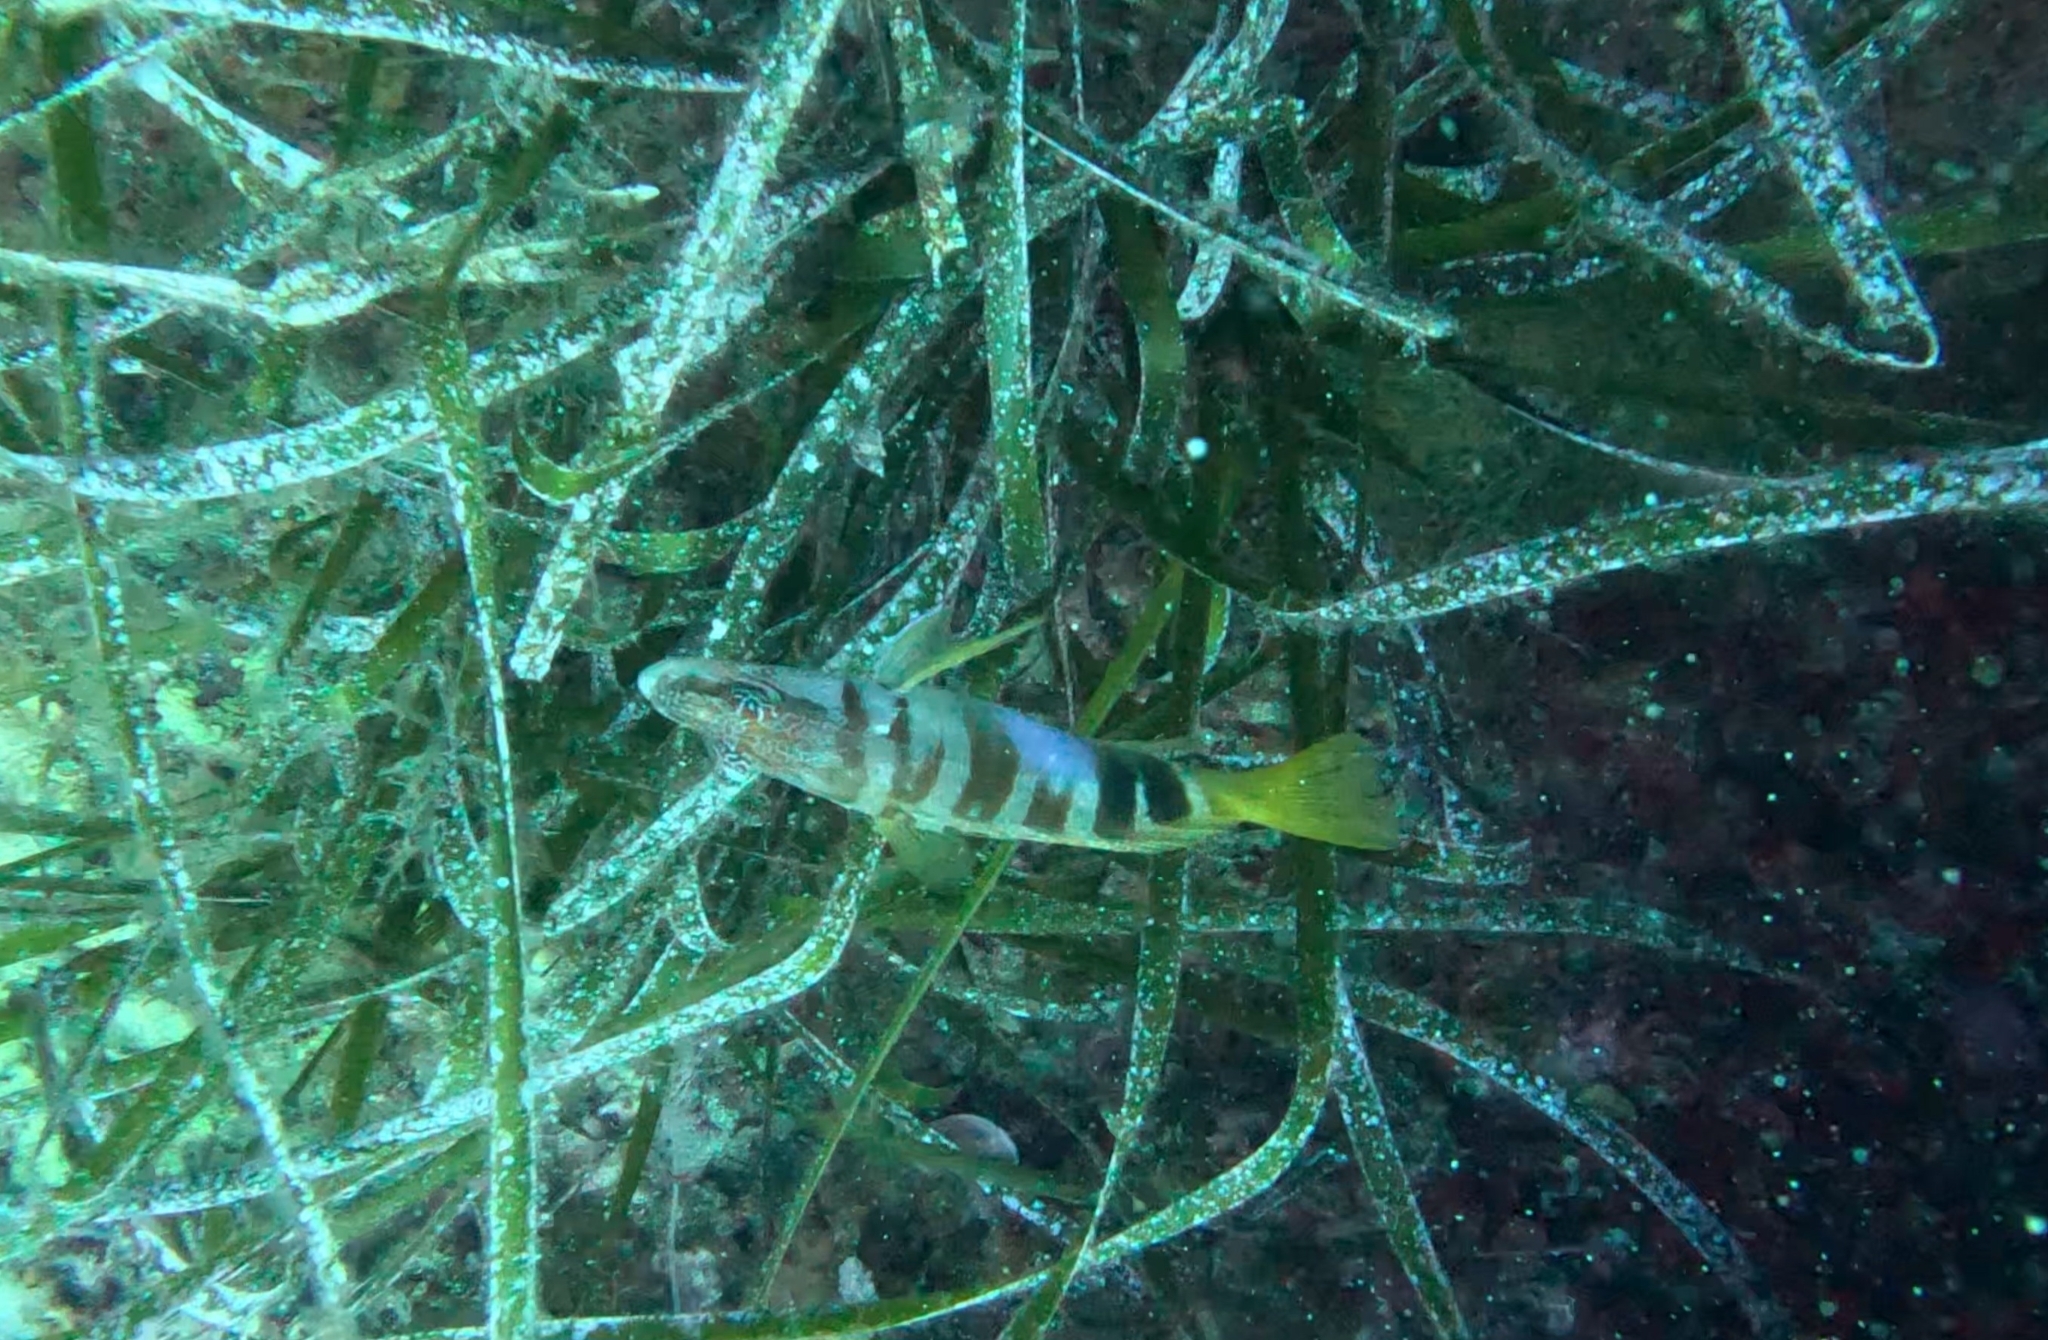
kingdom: Animalia
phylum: Chordata
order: Perciformes
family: Serranidae
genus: Serranus
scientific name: Serranus scriba
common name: Painted comber
